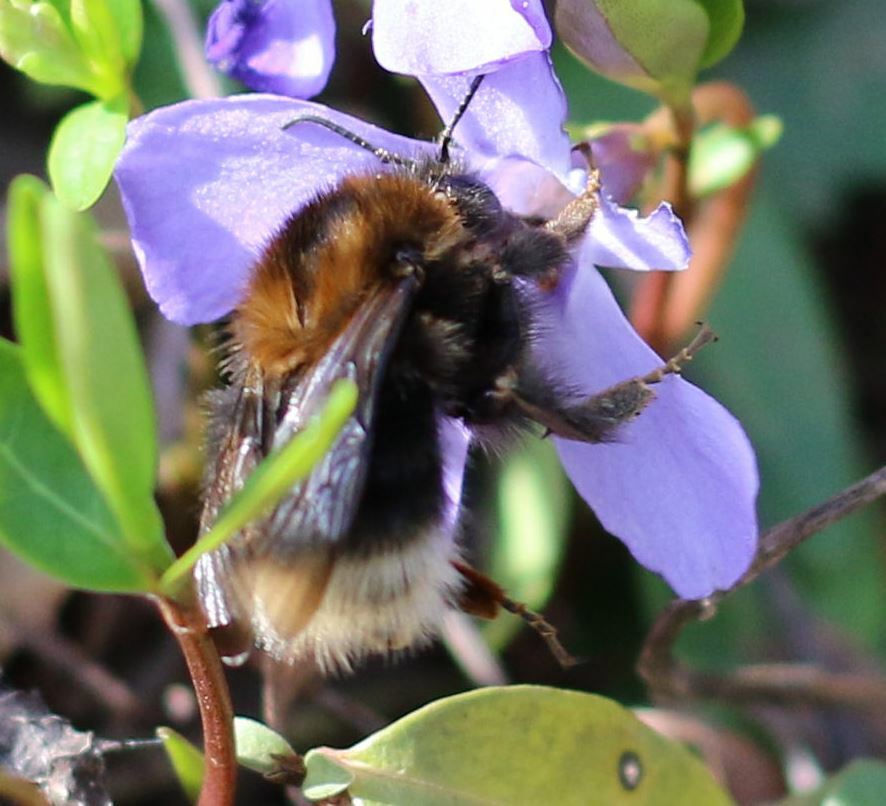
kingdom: Animalia
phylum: Arthropoda
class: Insecta
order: Hymenoptera
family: Apidae
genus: Bombus
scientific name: Bombus hypnorum
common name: New garden bumblebee
